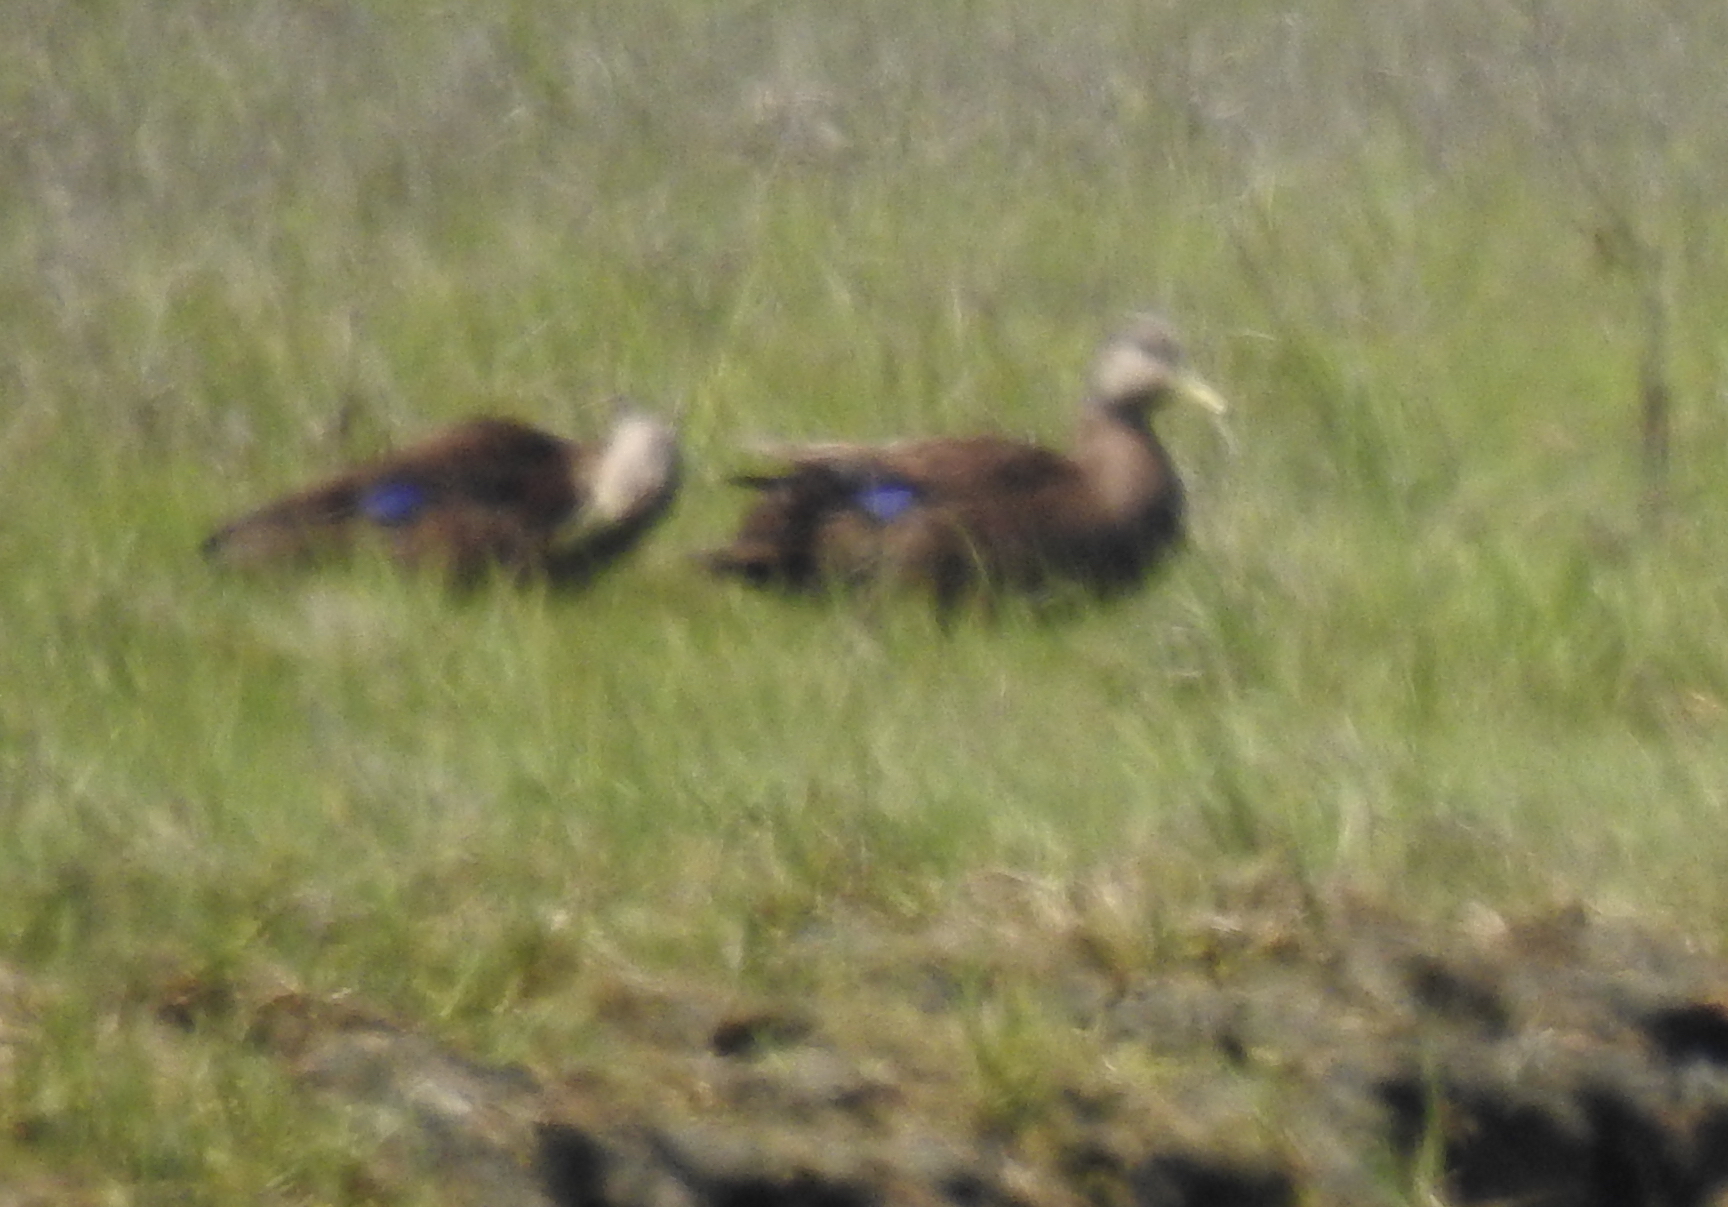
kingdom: Animalia
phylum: Chordata
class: Aves
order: Anseriformes
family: Anatidae
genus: Anas
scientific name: Anas rubripes
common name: American black duck
